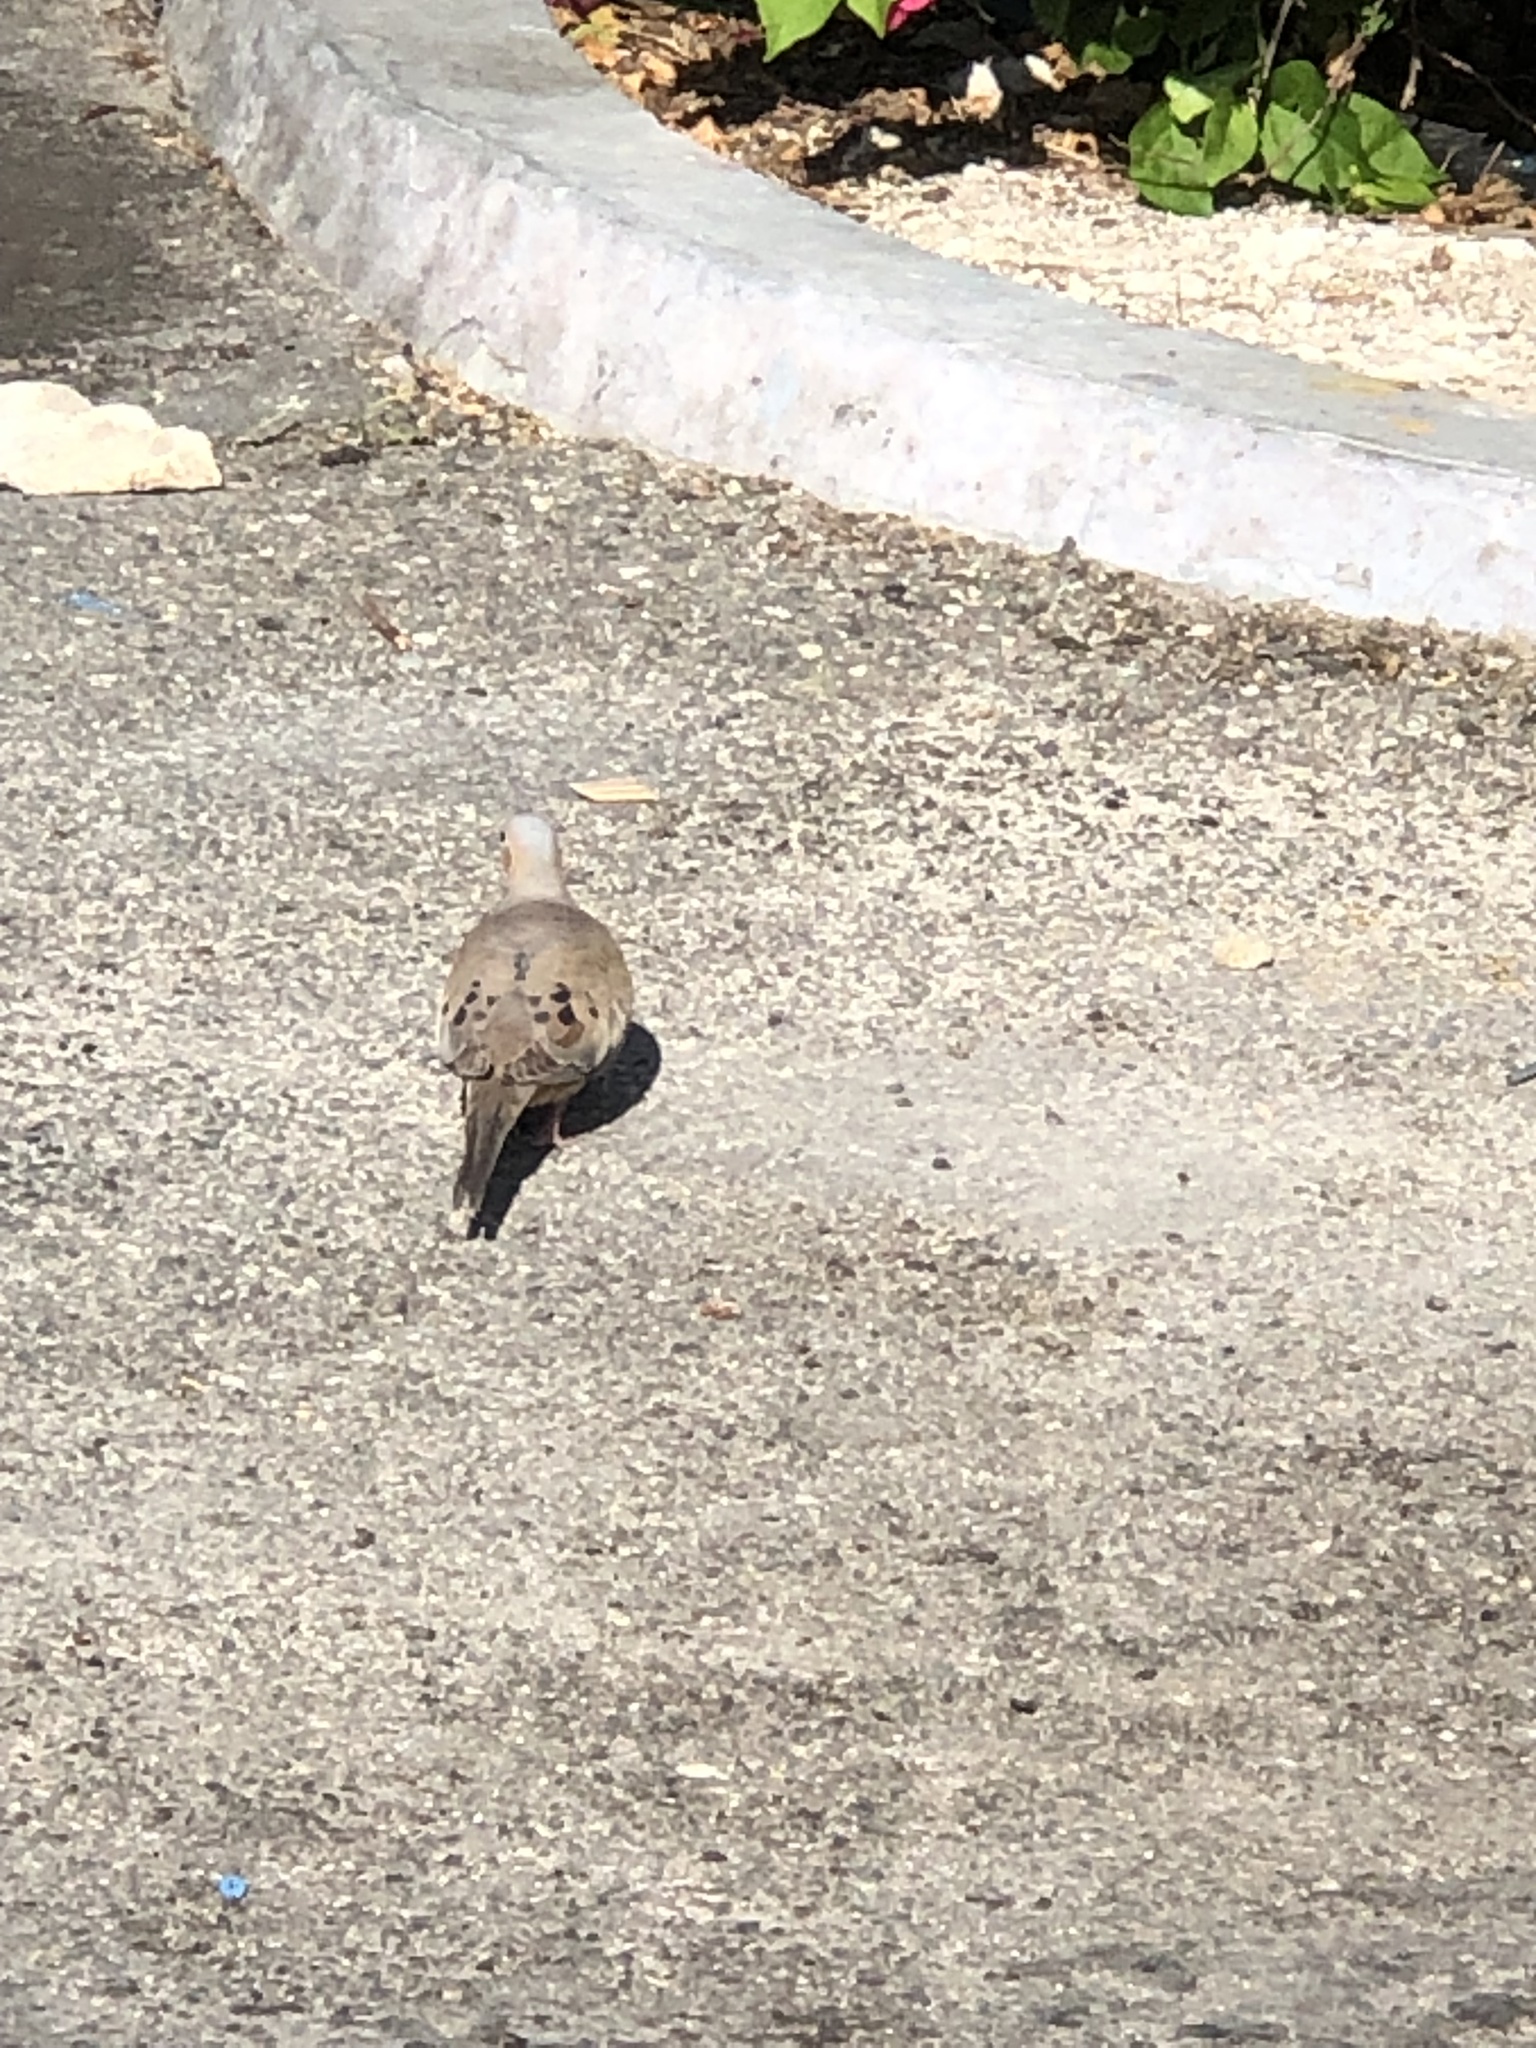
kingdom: Animalia
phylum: Chordata
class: Aves
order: Columbiformes
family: Columbidae
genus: Zenaida
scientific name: Zenaida macroura
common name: Mourning dove
